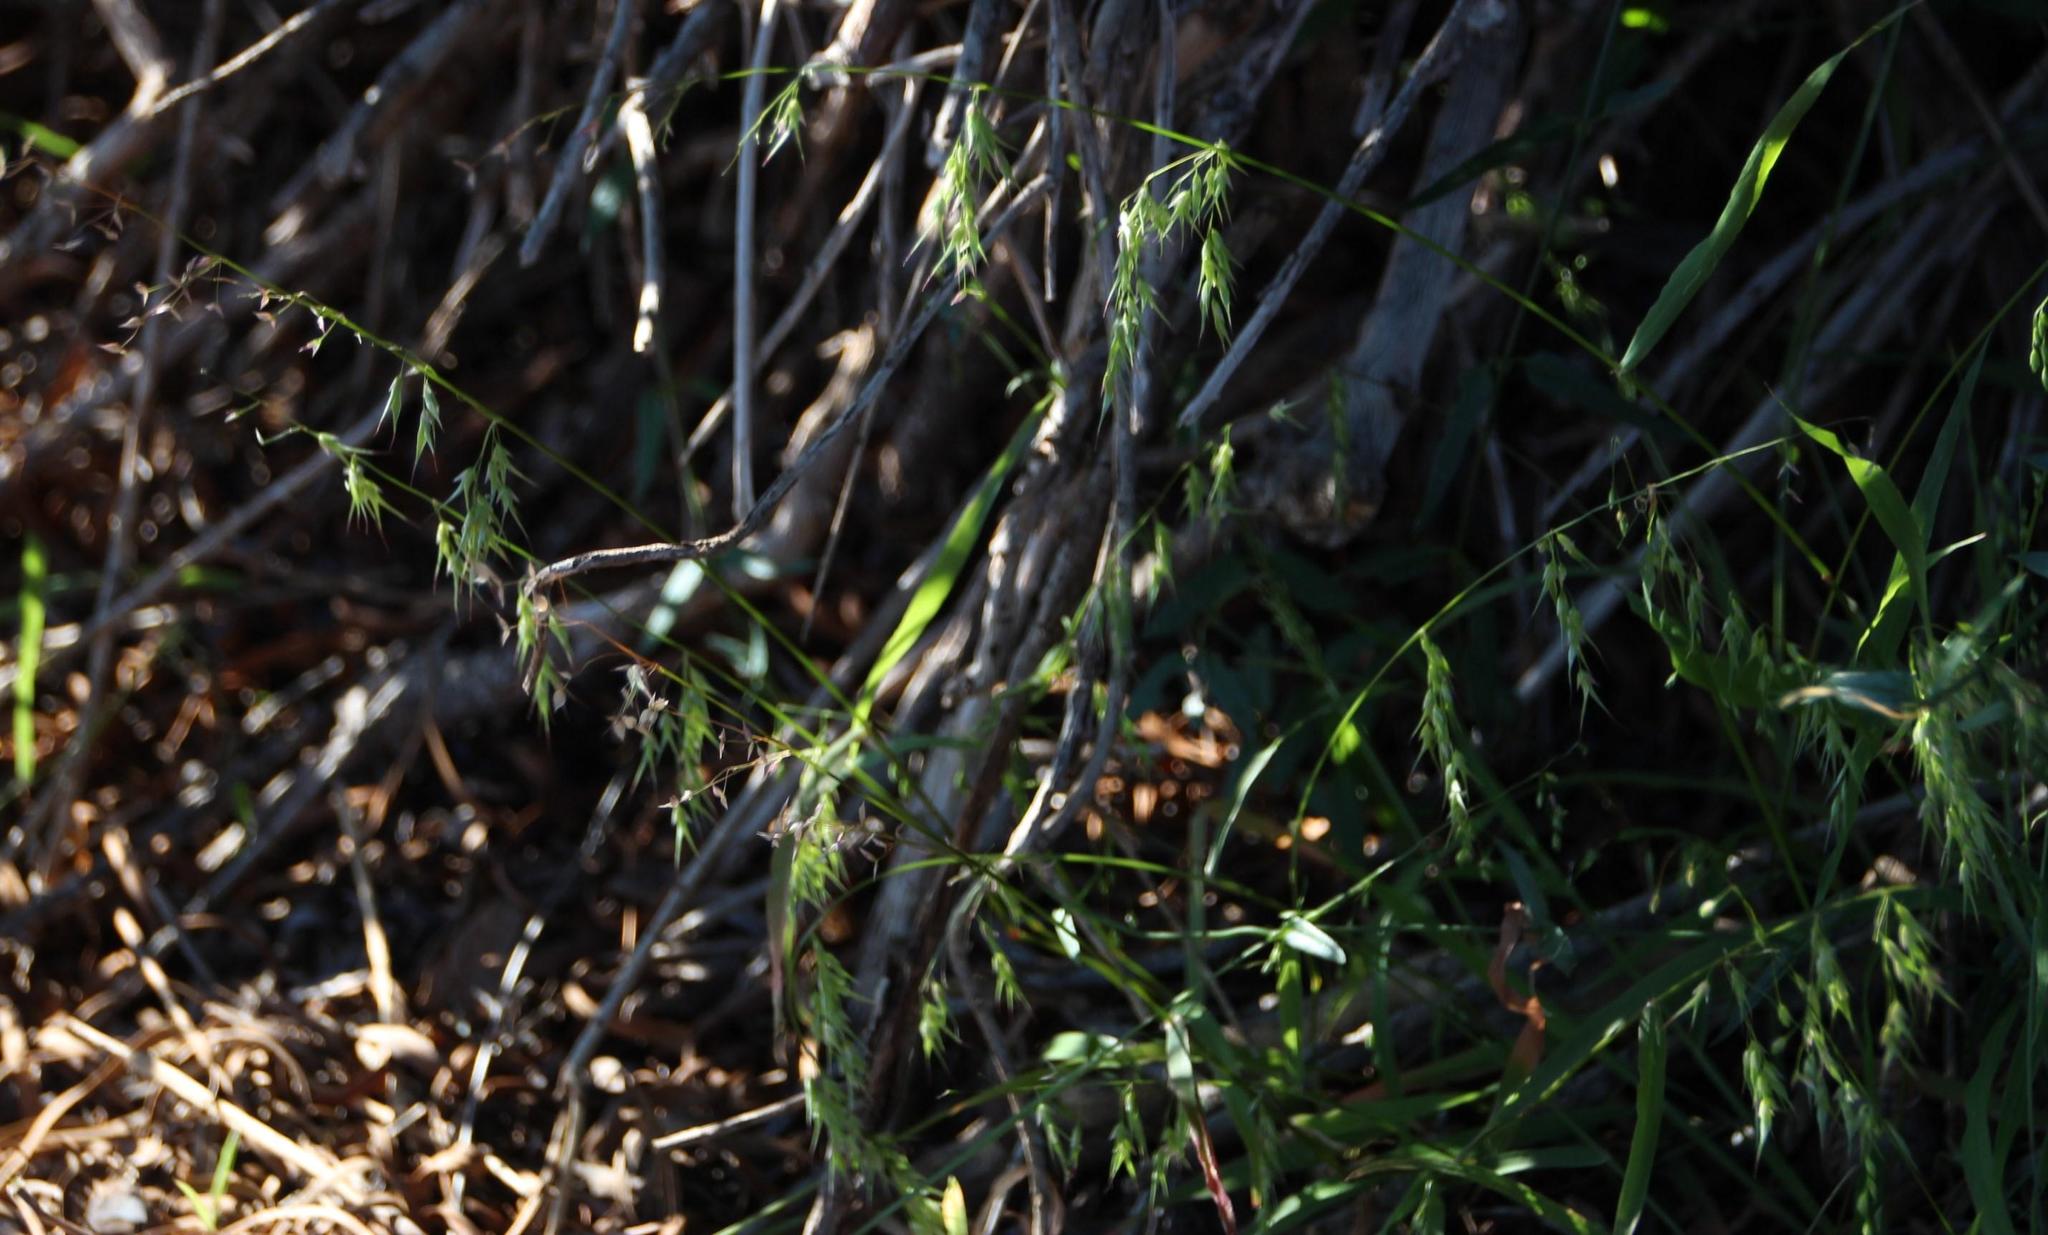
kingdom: Plantae
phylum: Tracheophyta
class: Liliopsida
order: Poales
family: Poaceae
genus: Ehrharta
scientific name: Ehrharta longiflora
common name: Longflowered veldtgrass
